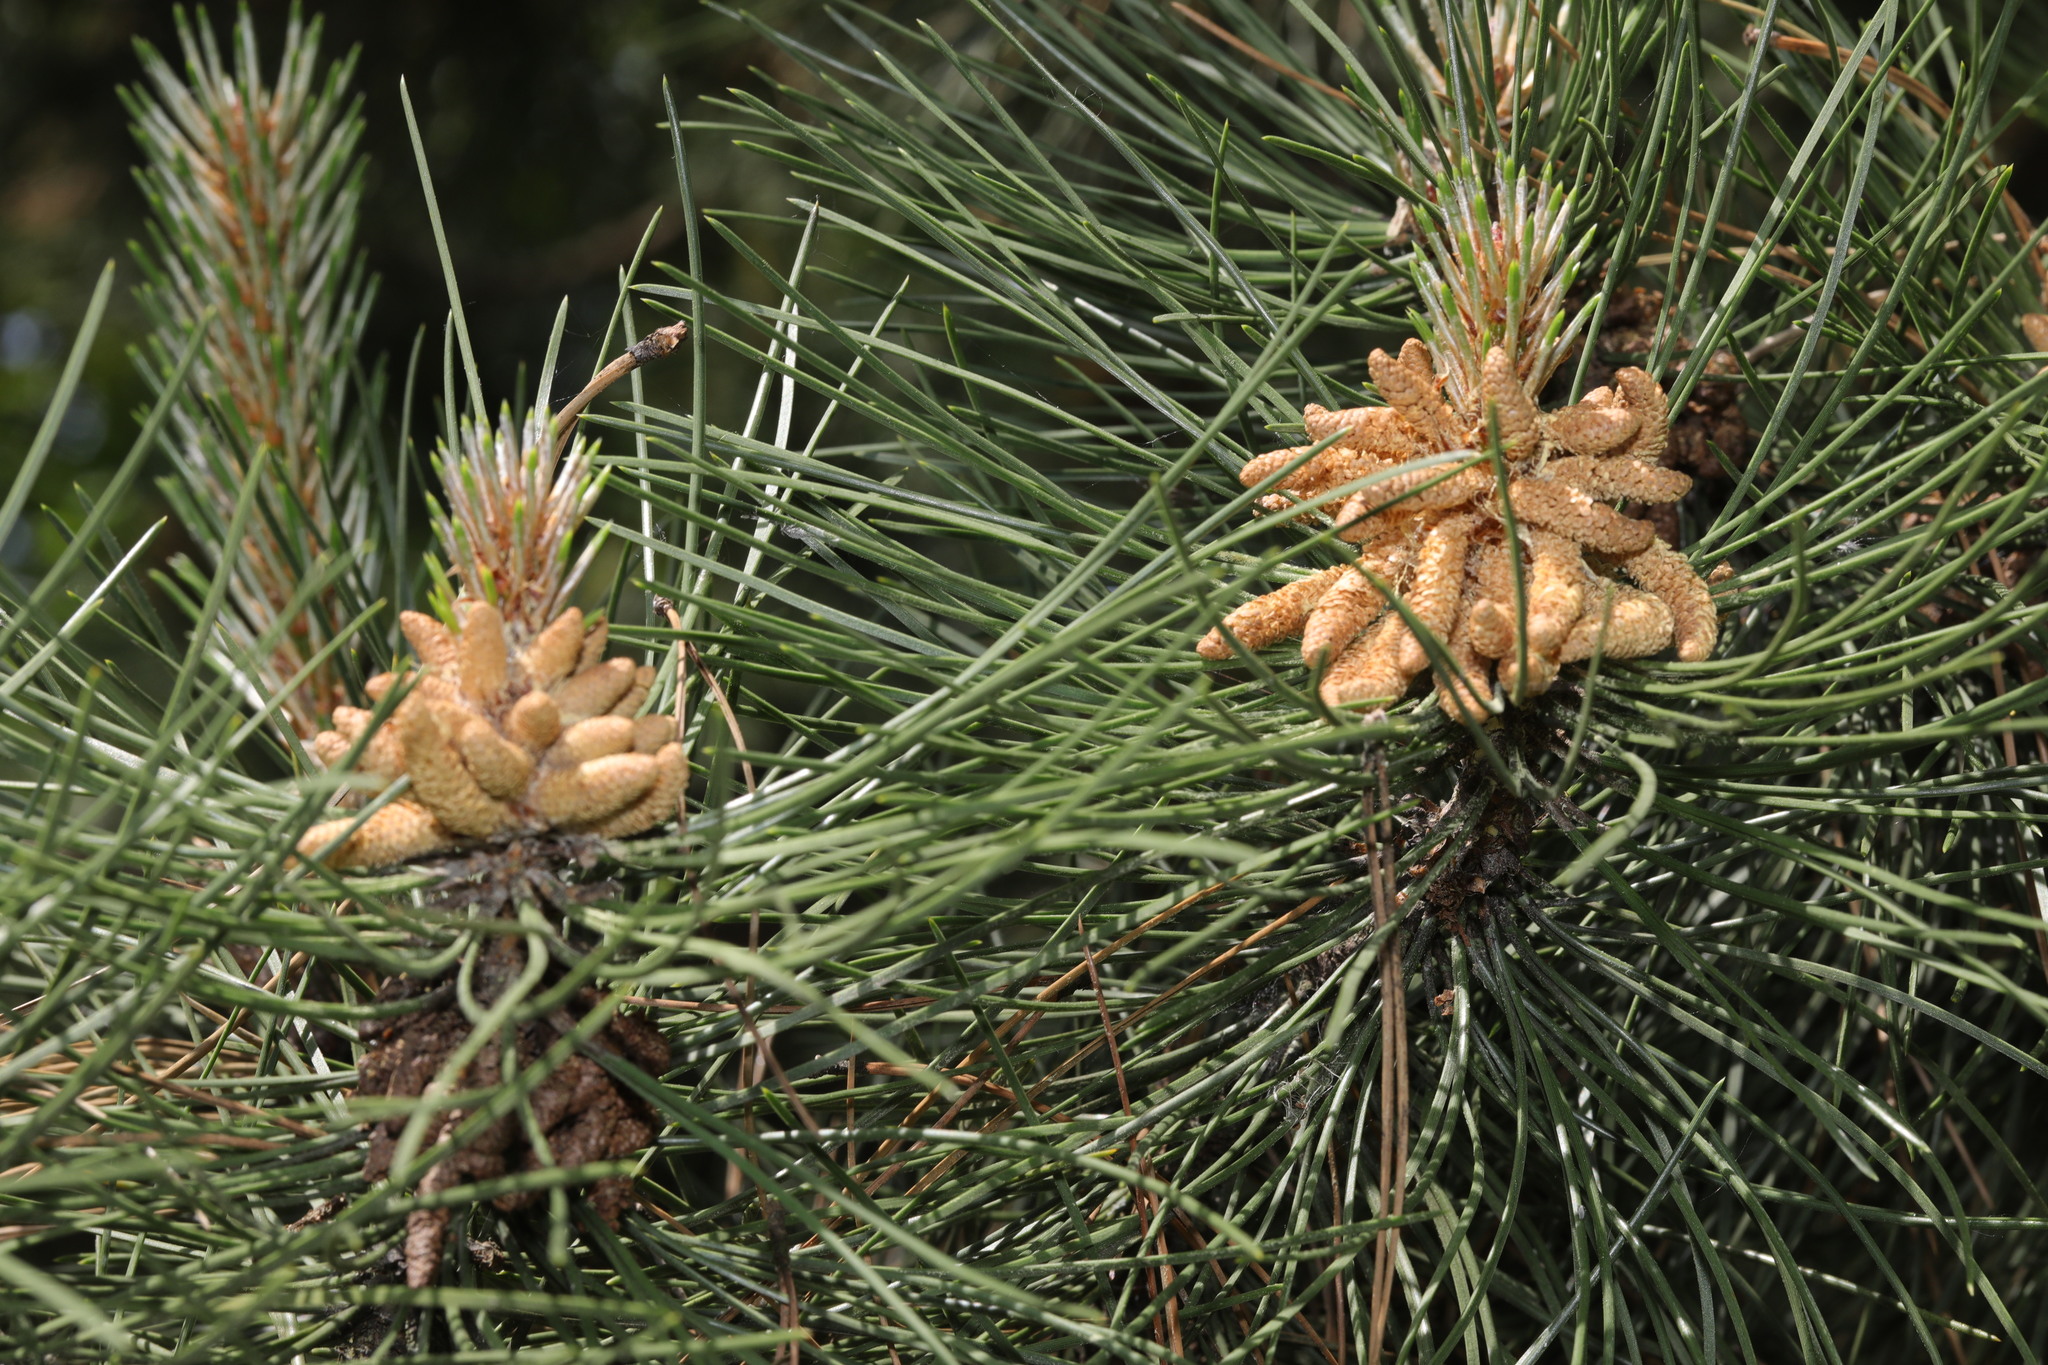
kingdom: Plantae
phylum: Tracheophyta
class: Pinopsida
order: Pinales
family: Pinaceae
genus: Pinus
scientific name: Pinus sylvestris
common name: Scots pine
